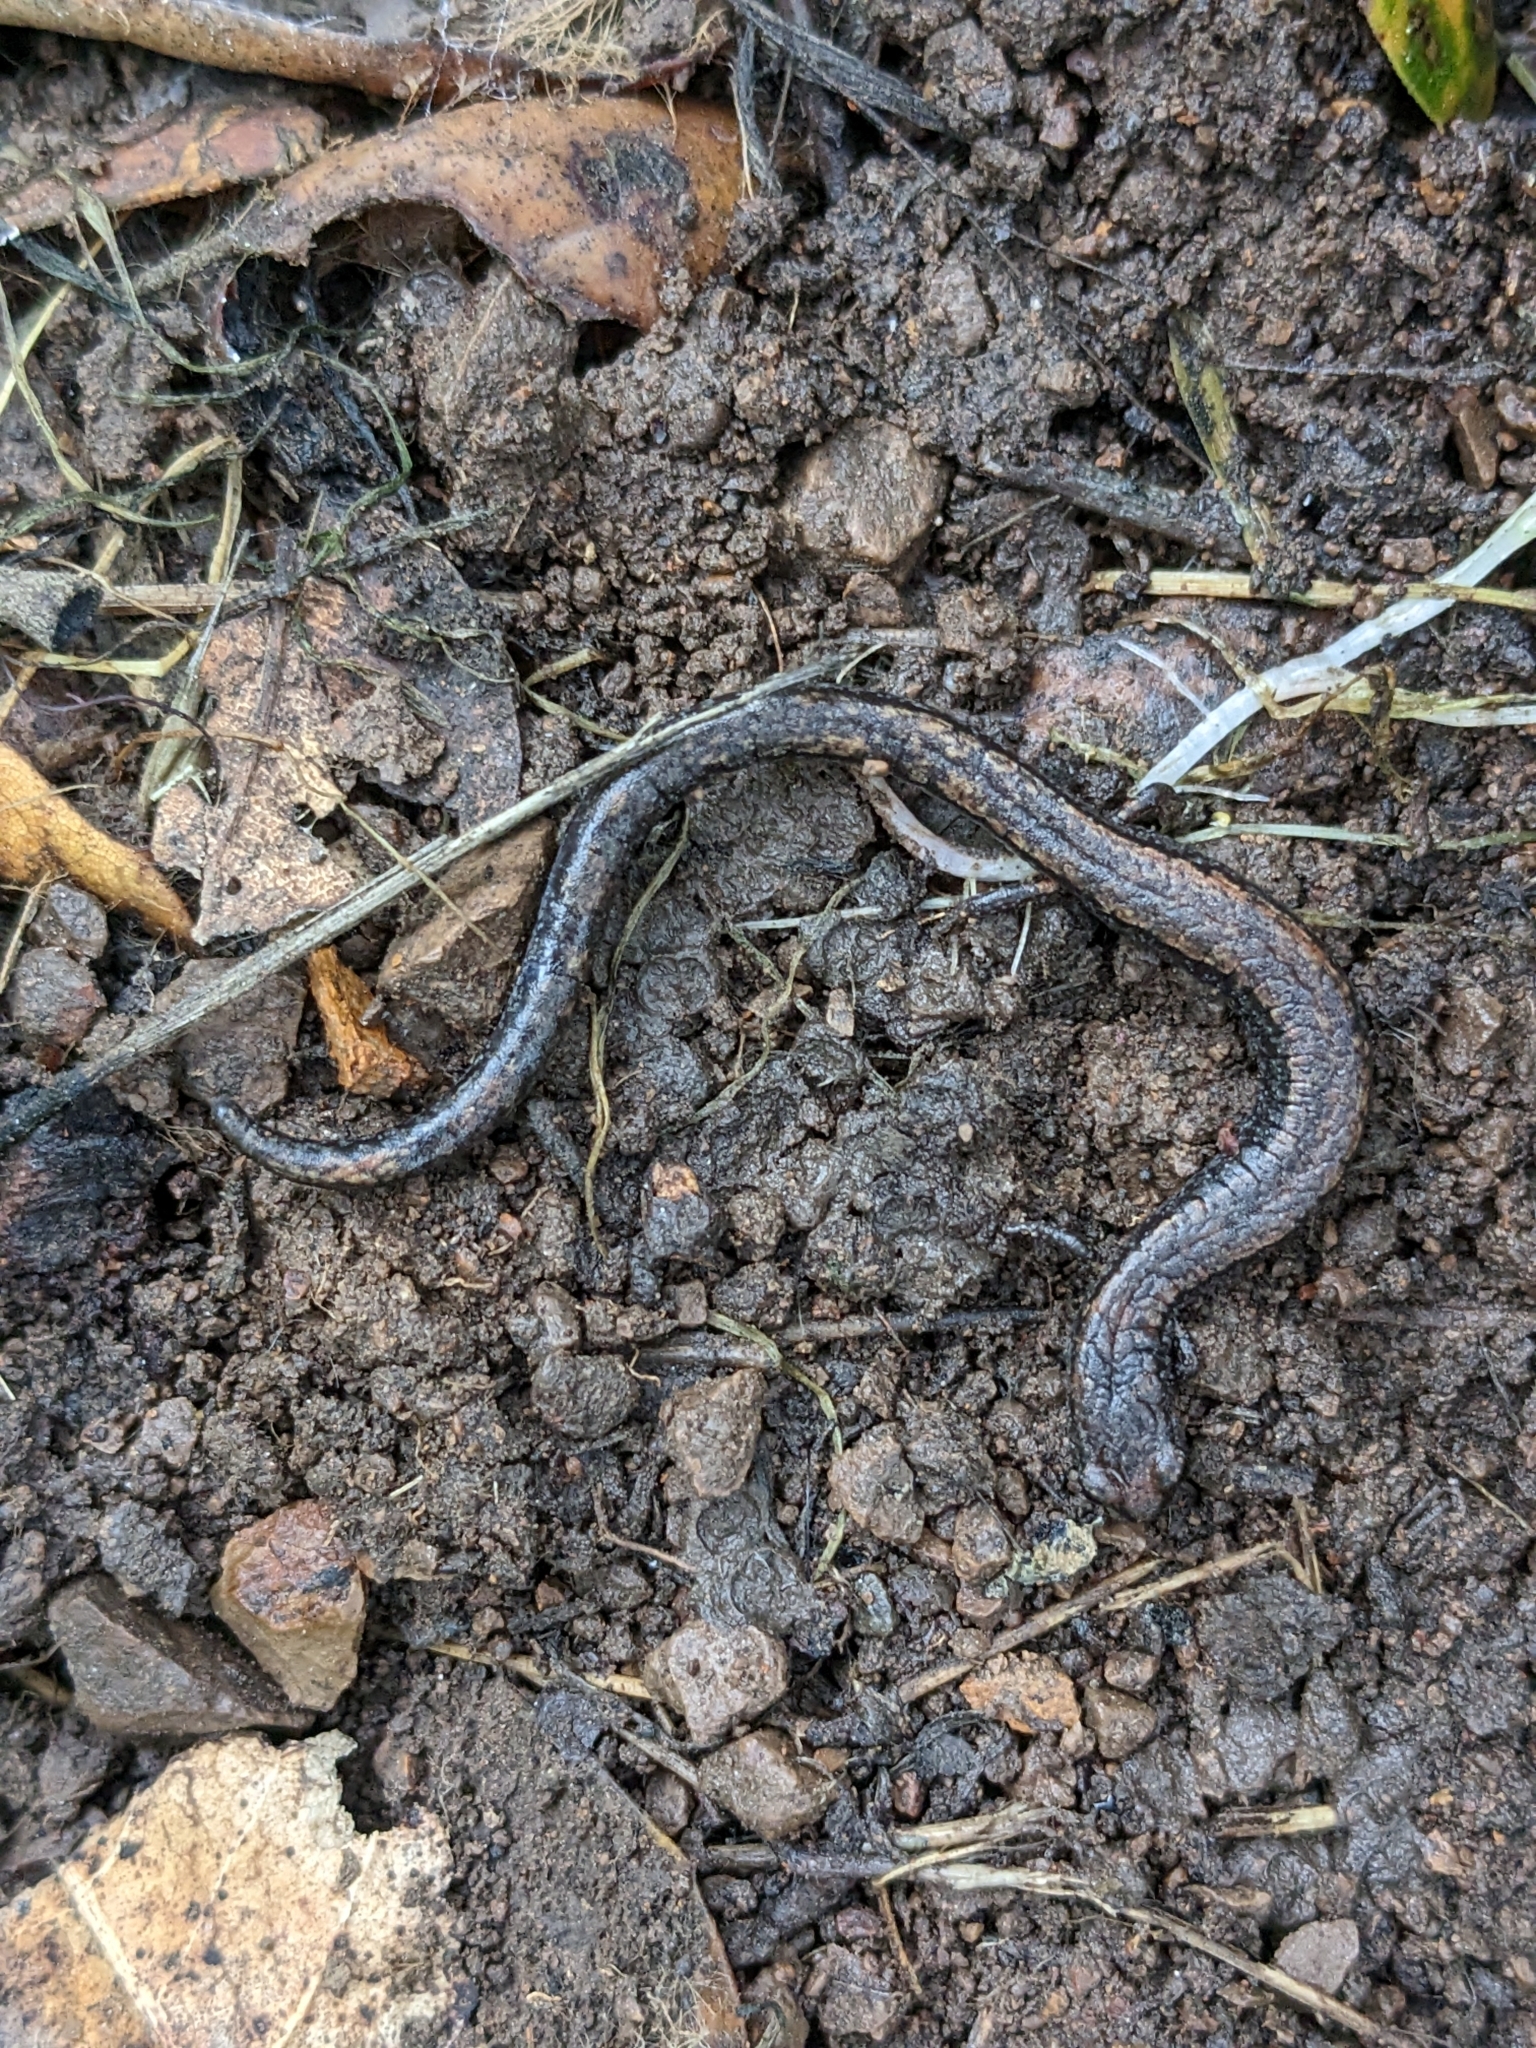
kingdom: Animalia
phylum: Chordata
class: Amphibia
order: Caudata
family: Plethodontidae
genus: Batrachoseps
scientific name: Batrachoseps attenuatus
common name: California slender salamander
